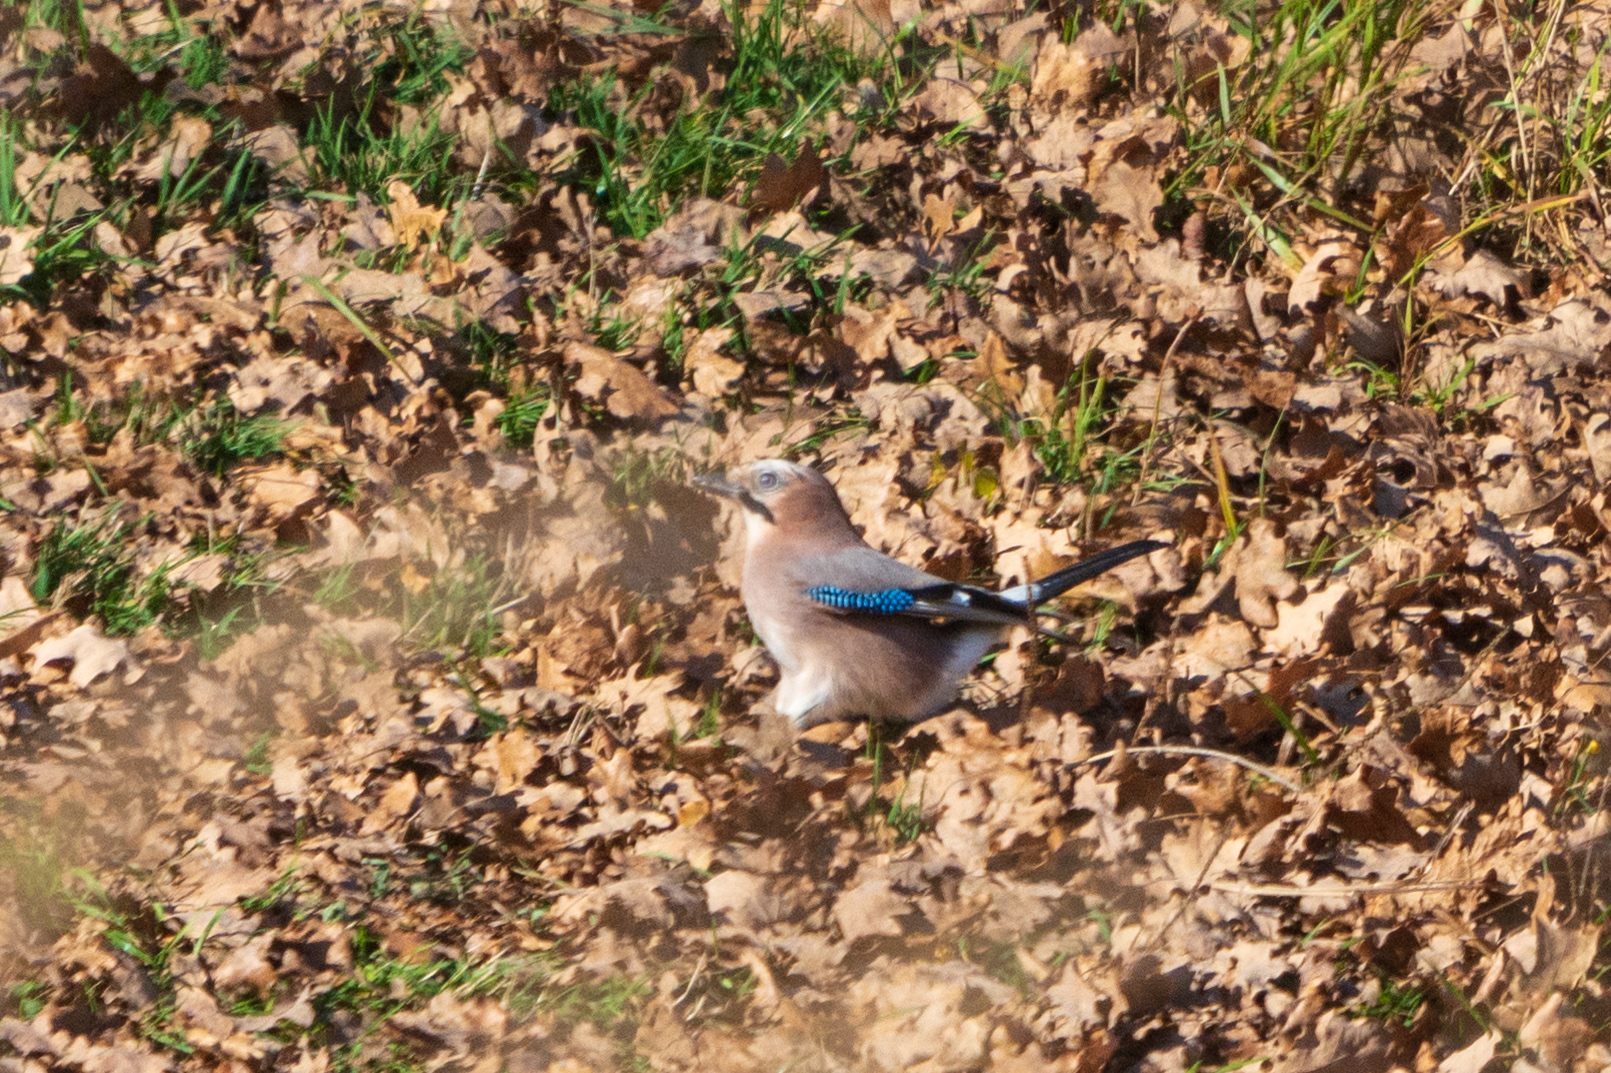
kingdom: Animalia
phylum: Chordata
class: Aves
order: Passeriformes
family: Corvidae
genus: Garrulus
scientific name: Garrulus glandarius
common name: Eurasian jay
